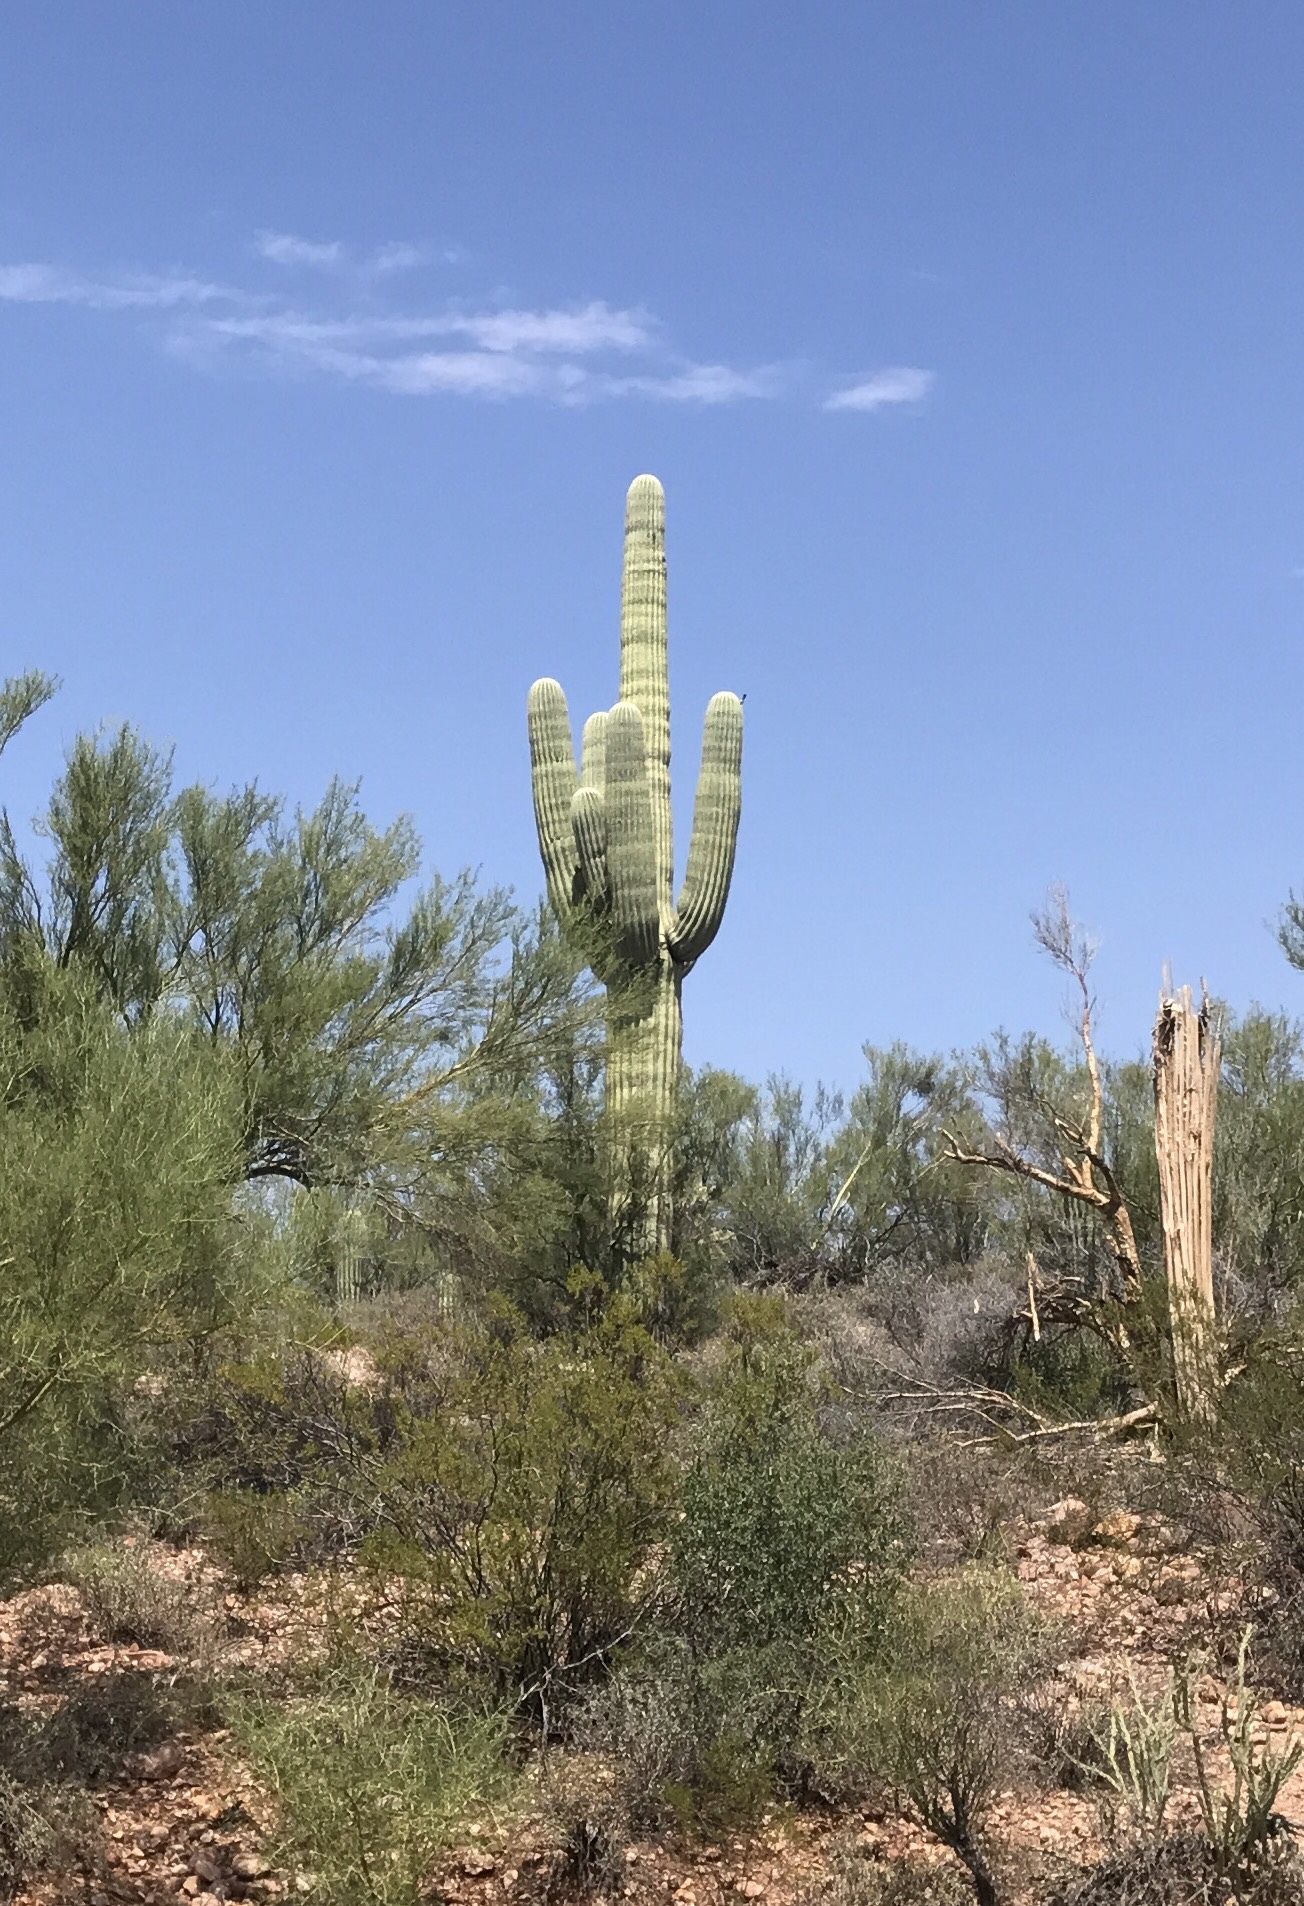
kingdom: Plantae
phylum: Tracheophyta
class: Magnoliopsida
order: Caryophyllales
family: Cactaceae
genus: Carnegiea
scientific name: Carnegiea gigantea
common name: Saguaro
